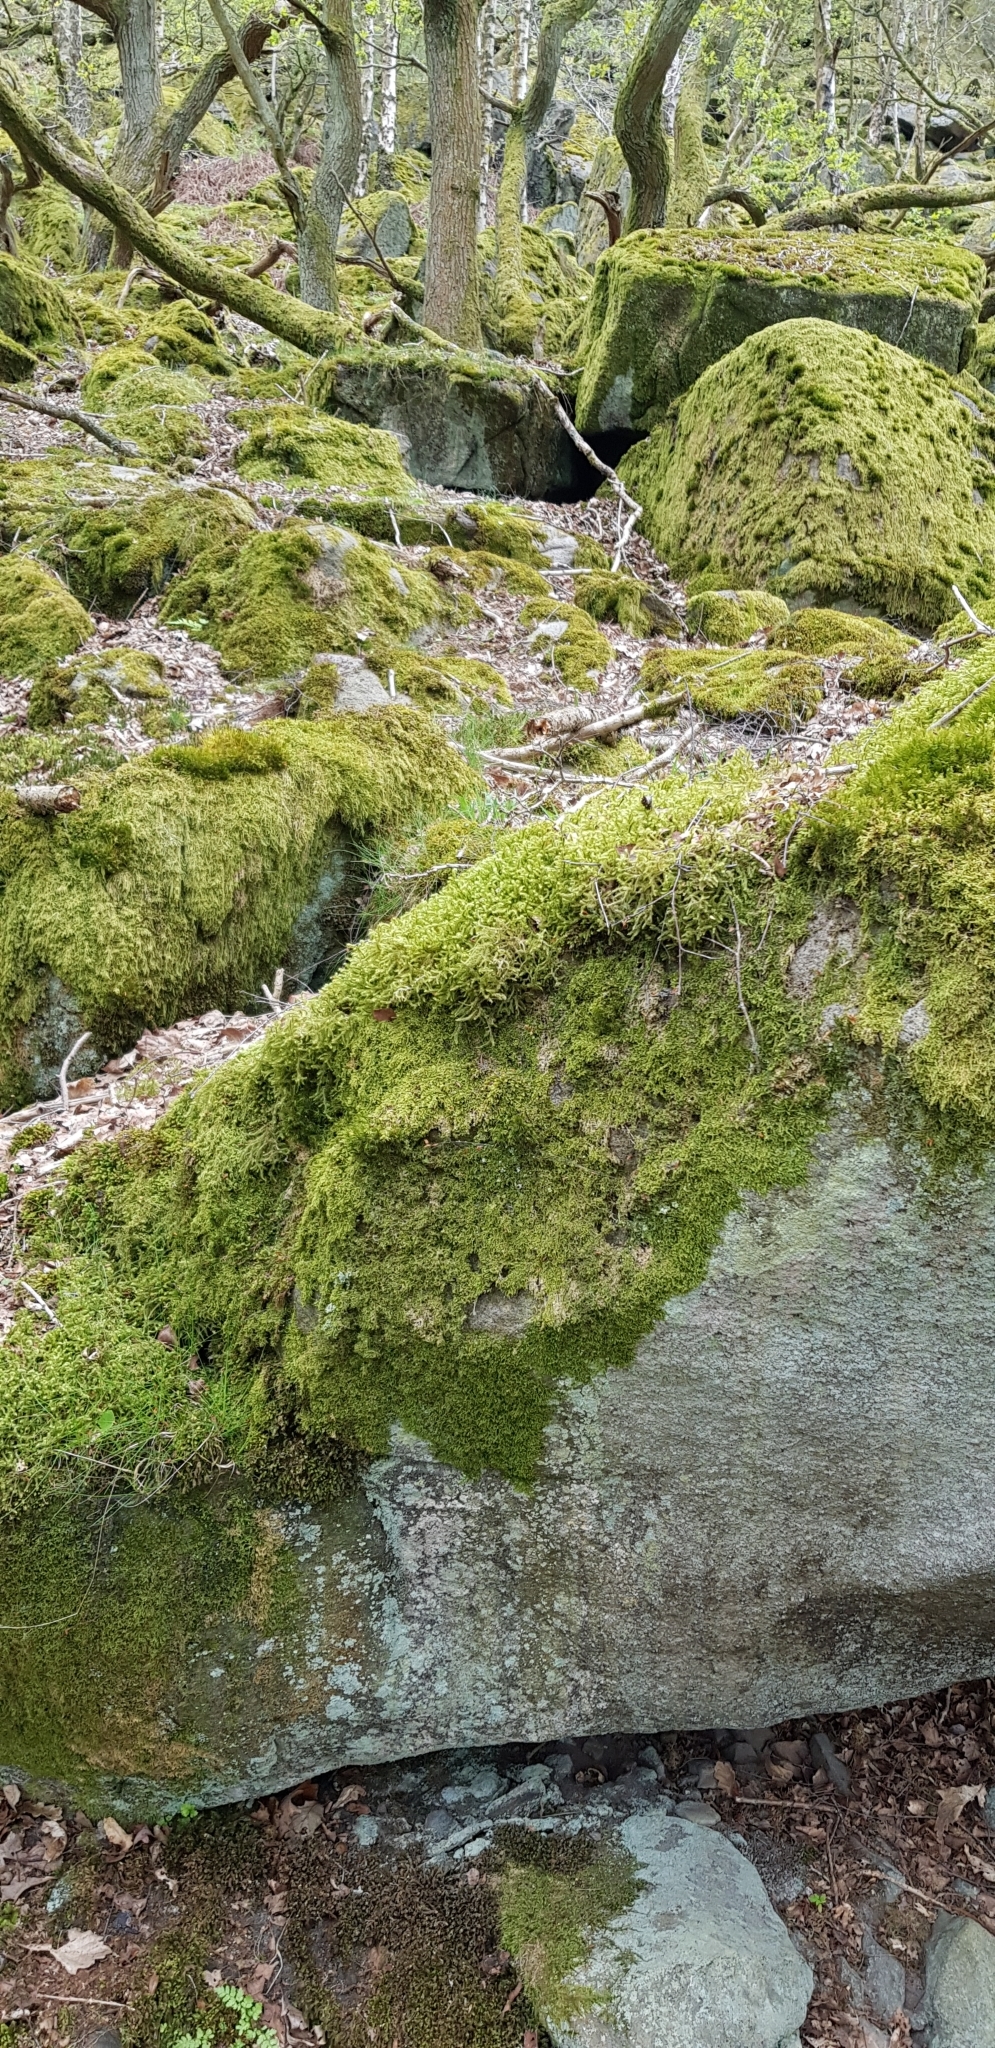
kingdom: Plantae
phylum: Bryophyta
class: Bryopsida
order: Hypnales
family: Hylocomiaceae
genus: Rhytidiadelphus
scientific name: Rhytidiadelphus loreus
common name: Lanky moss
